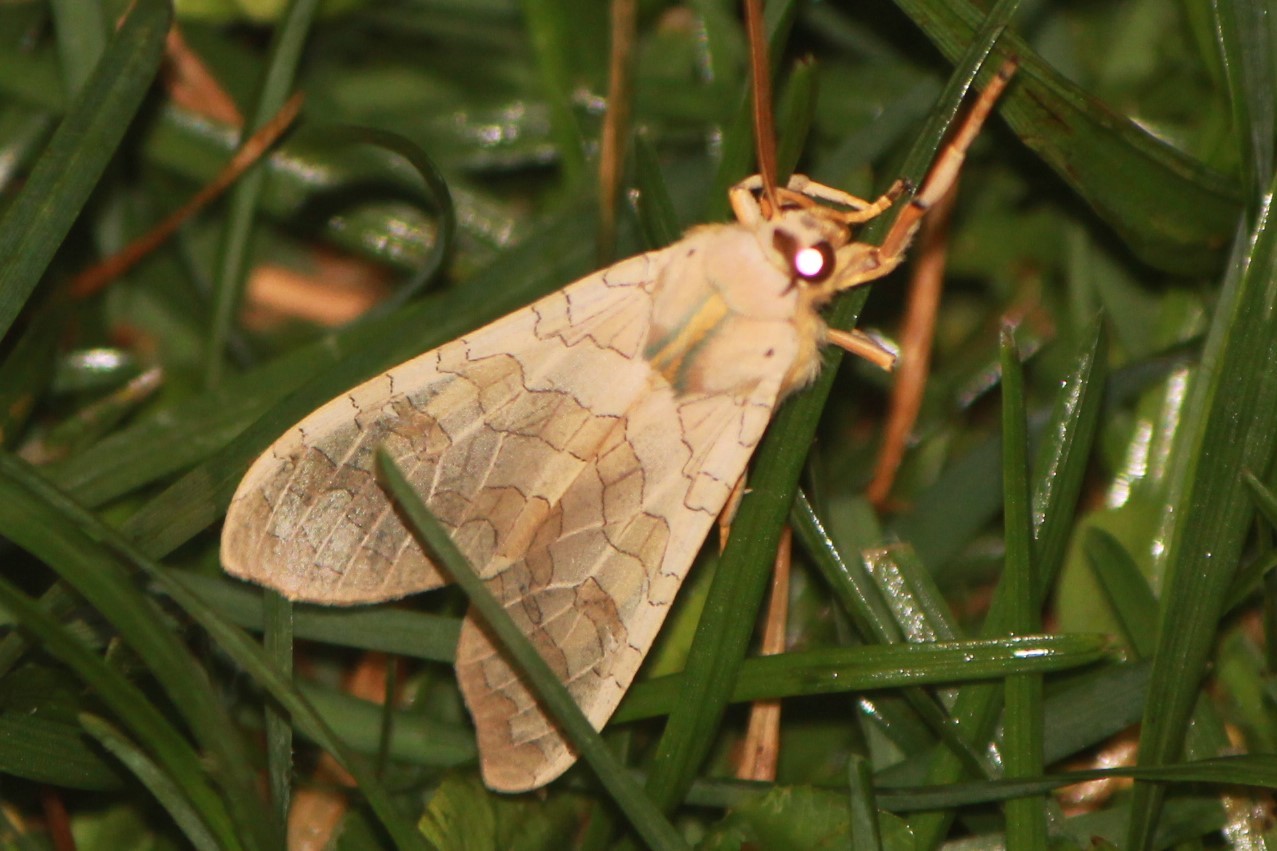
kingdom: Animalia
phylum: Arthropoda
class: Insecta
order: Lepidoptera
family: Erebidae
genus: Halysidota
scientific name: Halysidota tessellaris
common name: Banded tussock moth
